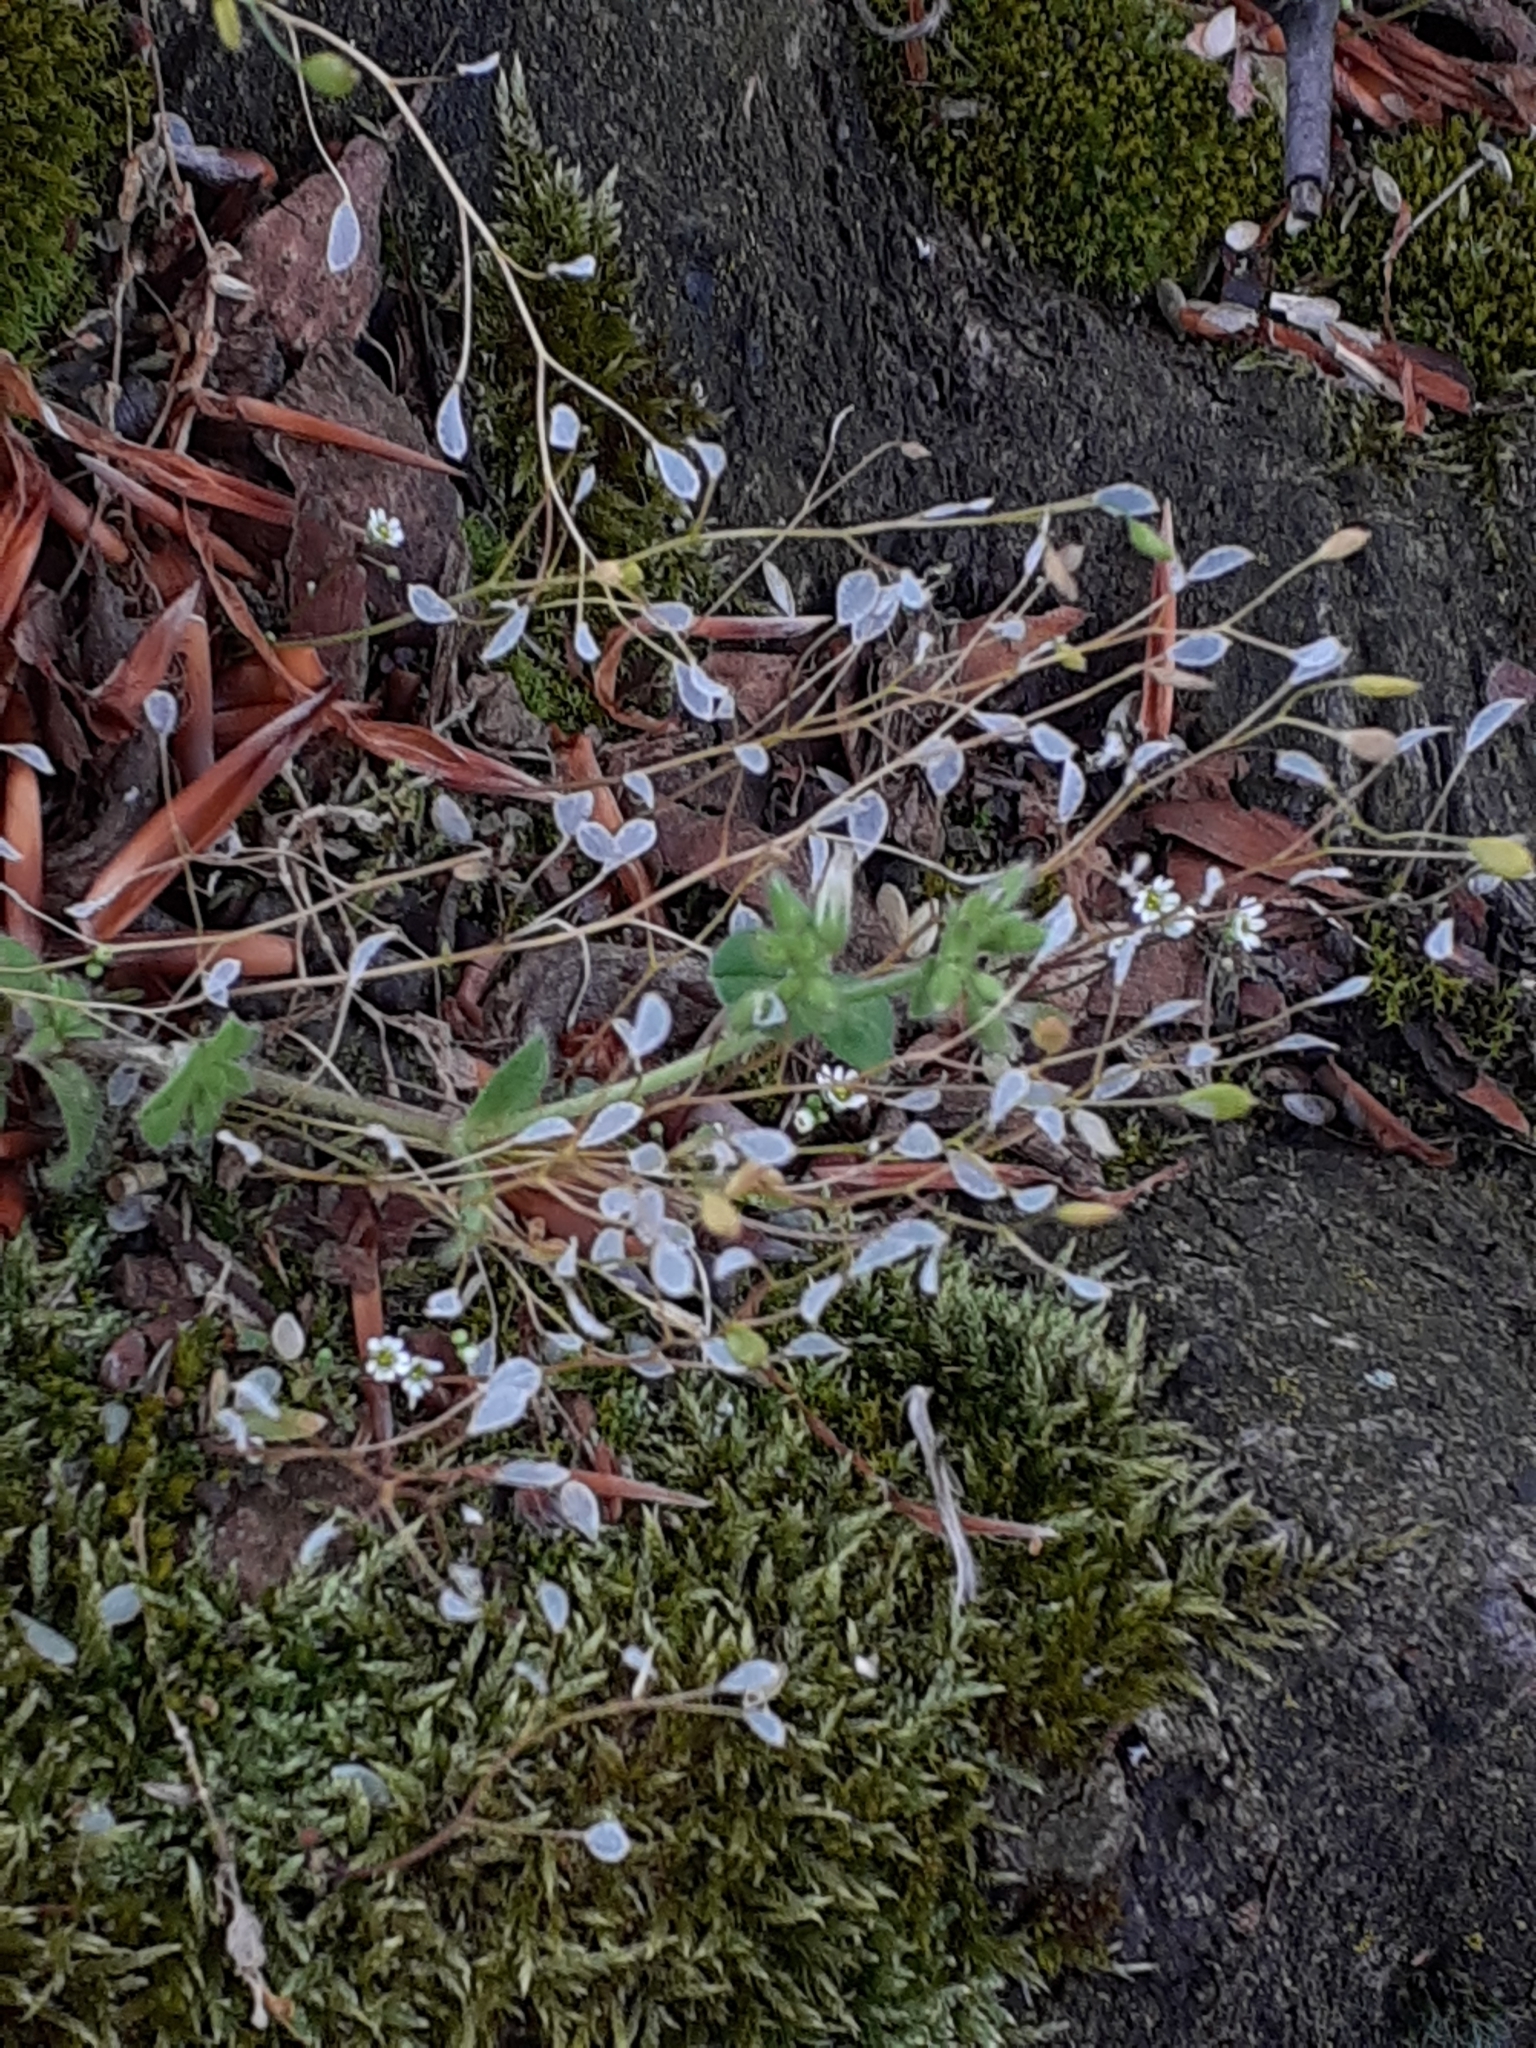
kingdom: Plantae
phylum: Tracheophyta
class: Magnoliopsida
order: Brassicales
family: Brassicaceae
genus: Draba
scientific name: Draba verna
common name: Spring draba
